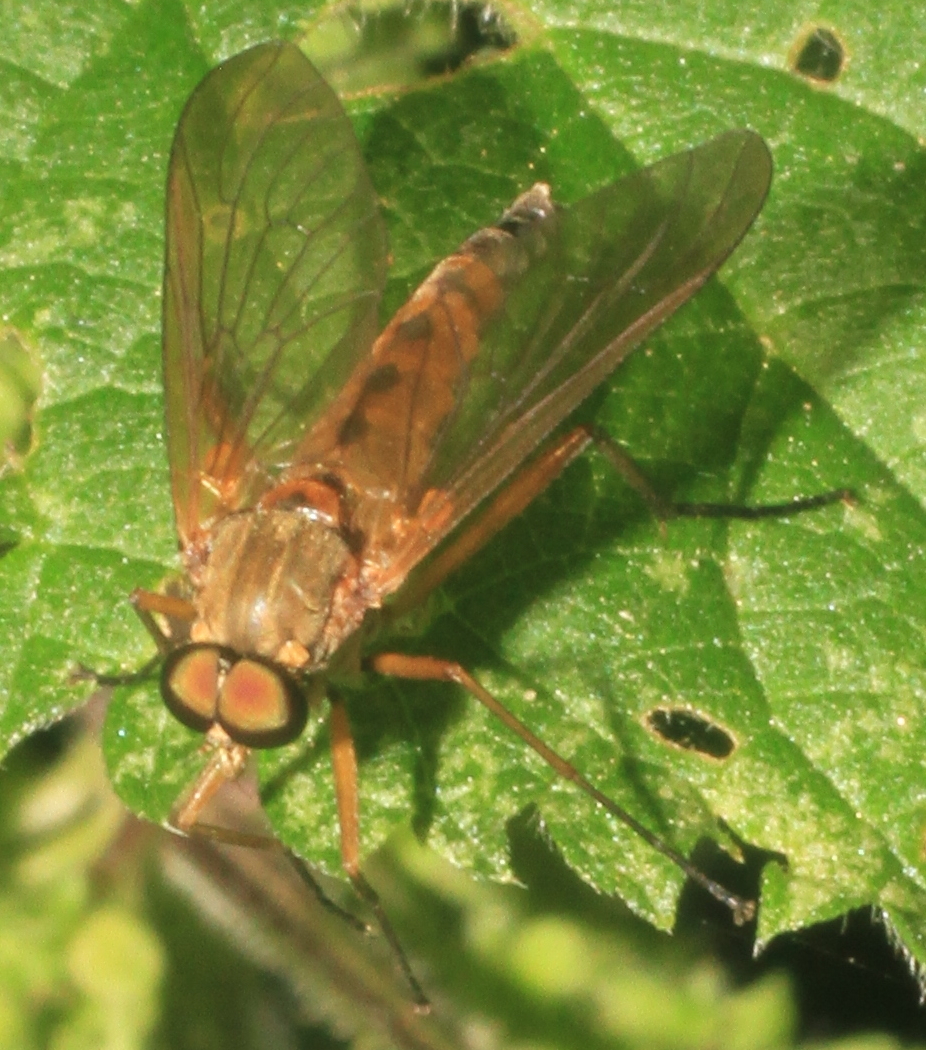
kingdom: Animalia
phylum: Arthropoda
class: Insecta
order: Diptera
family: Rhagionidae
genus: Rhagio
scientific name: Rhagio tringaria
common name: Marsh snipefly
